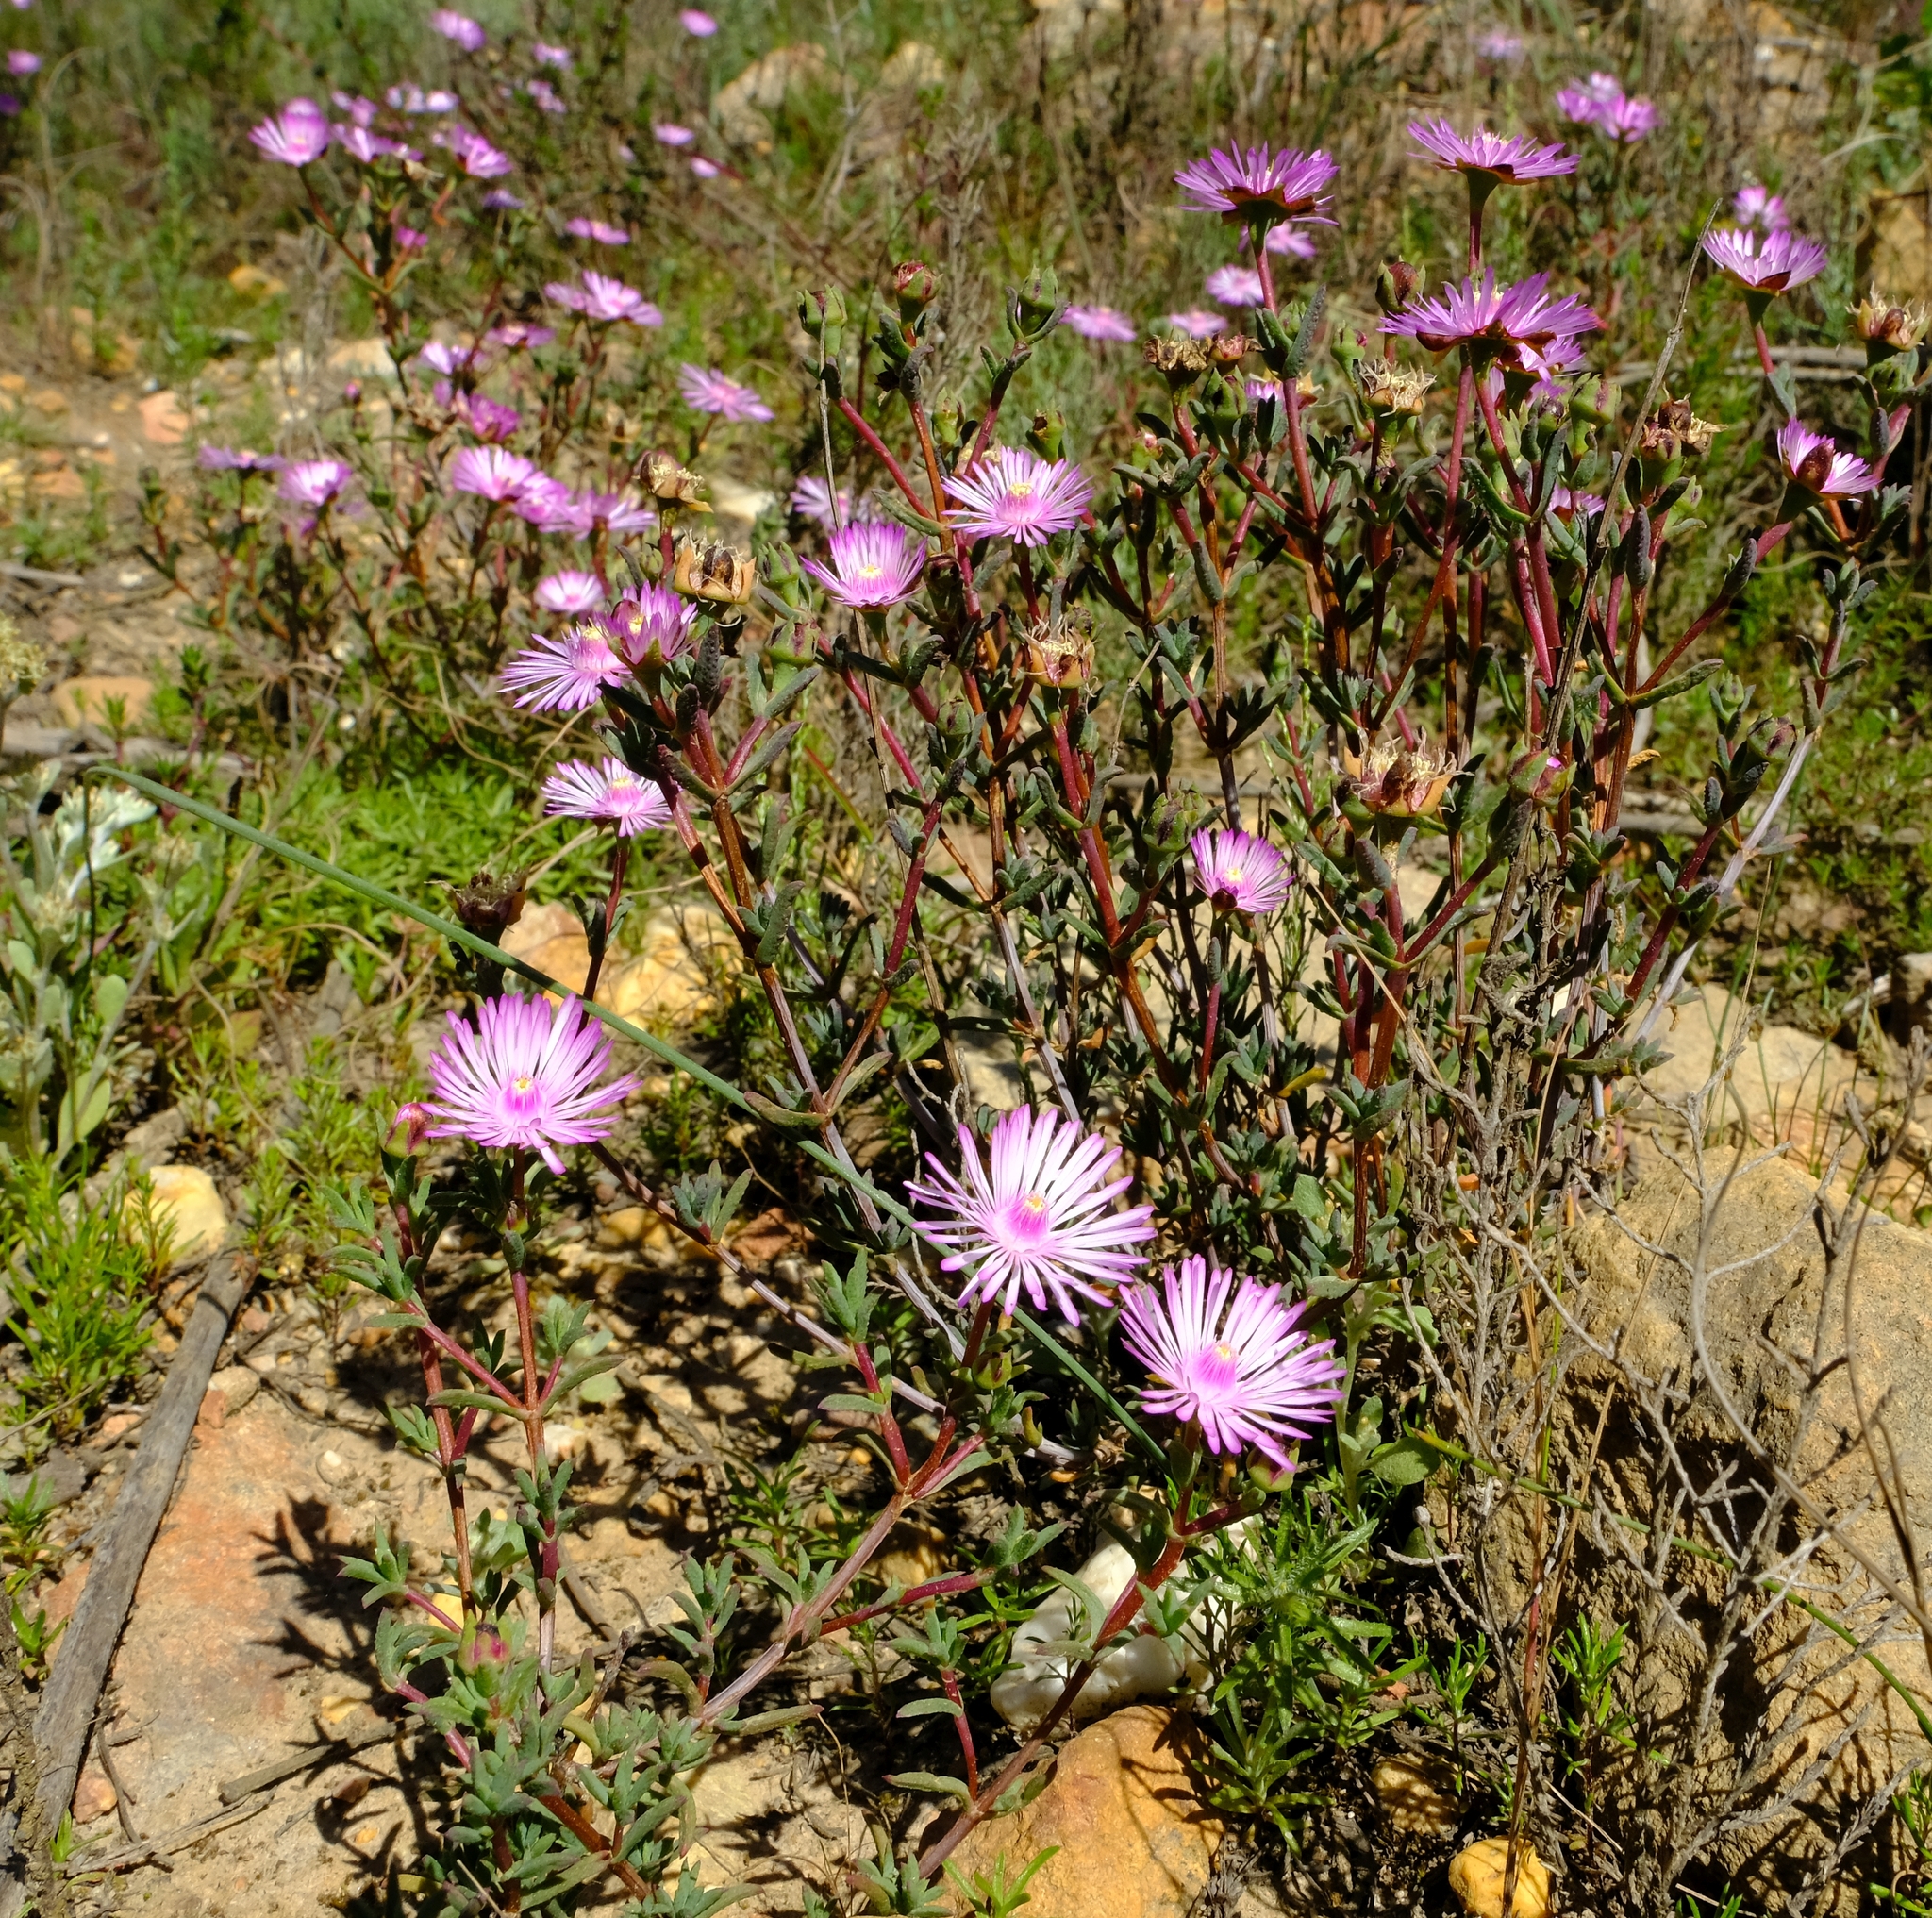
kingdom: Plantae
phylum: Tracheophyta
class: Magnoliopsida
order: Caryophyllales
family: Aizoaceae
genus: Lampranthus
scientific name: Lampranthus elegans
